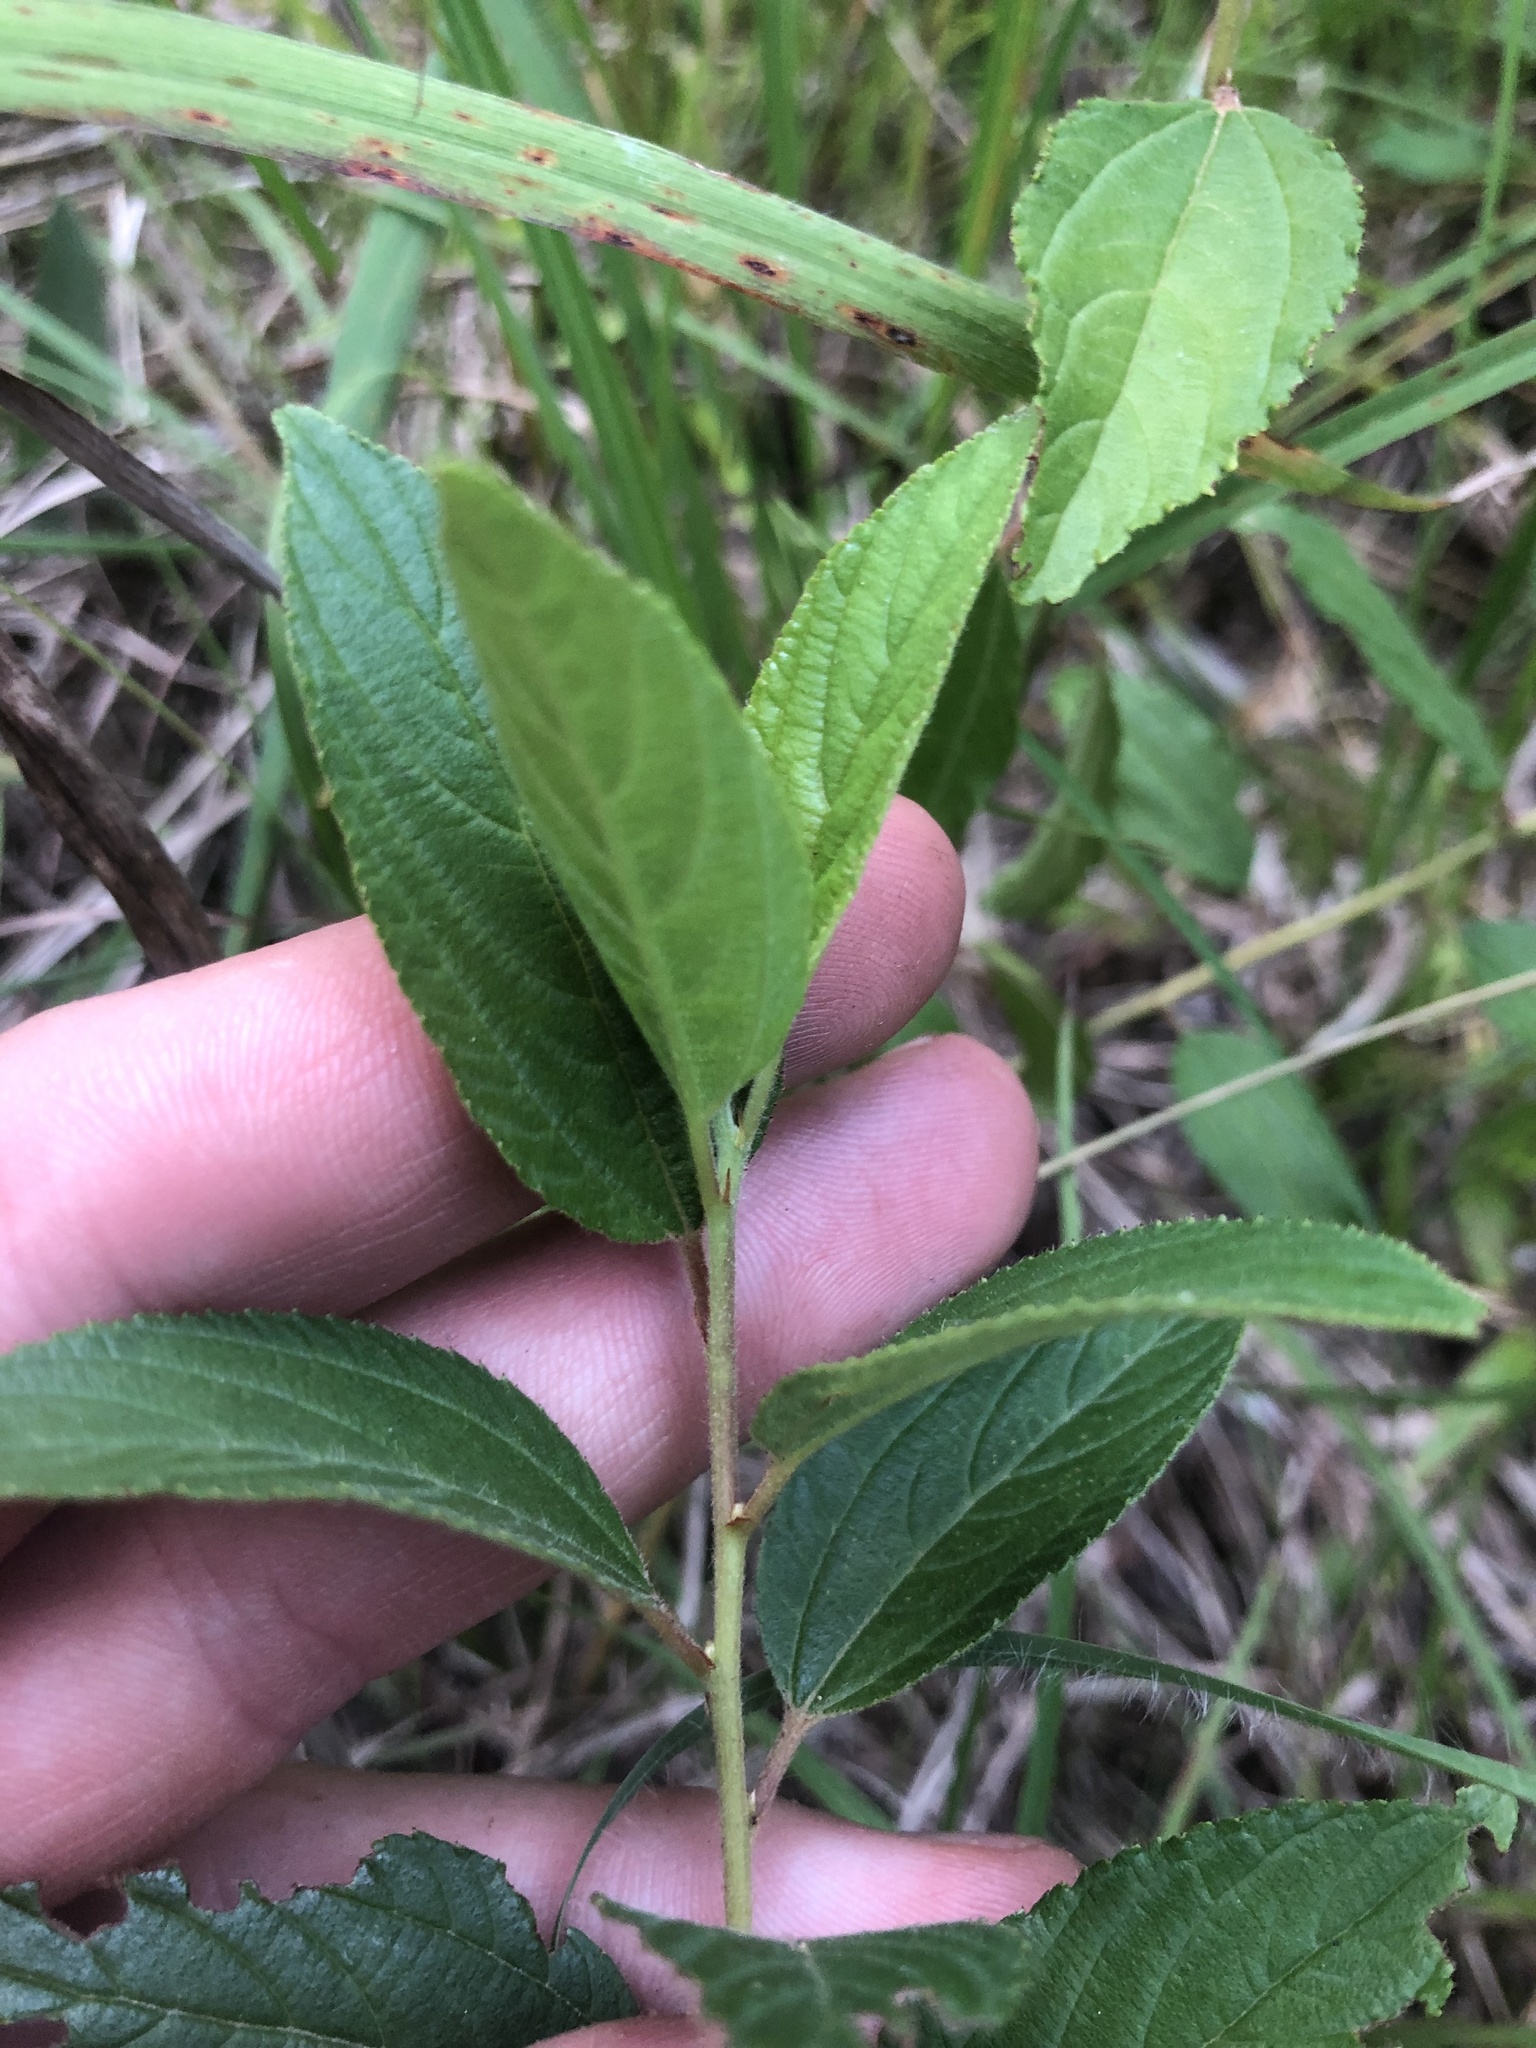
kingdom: Plantae
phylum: Tracheophyta
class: Magnoliopsida
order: Rosales
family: Rhamnaceae
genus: Ceanothus
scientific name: Ceanothus americanus
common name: Redroot
